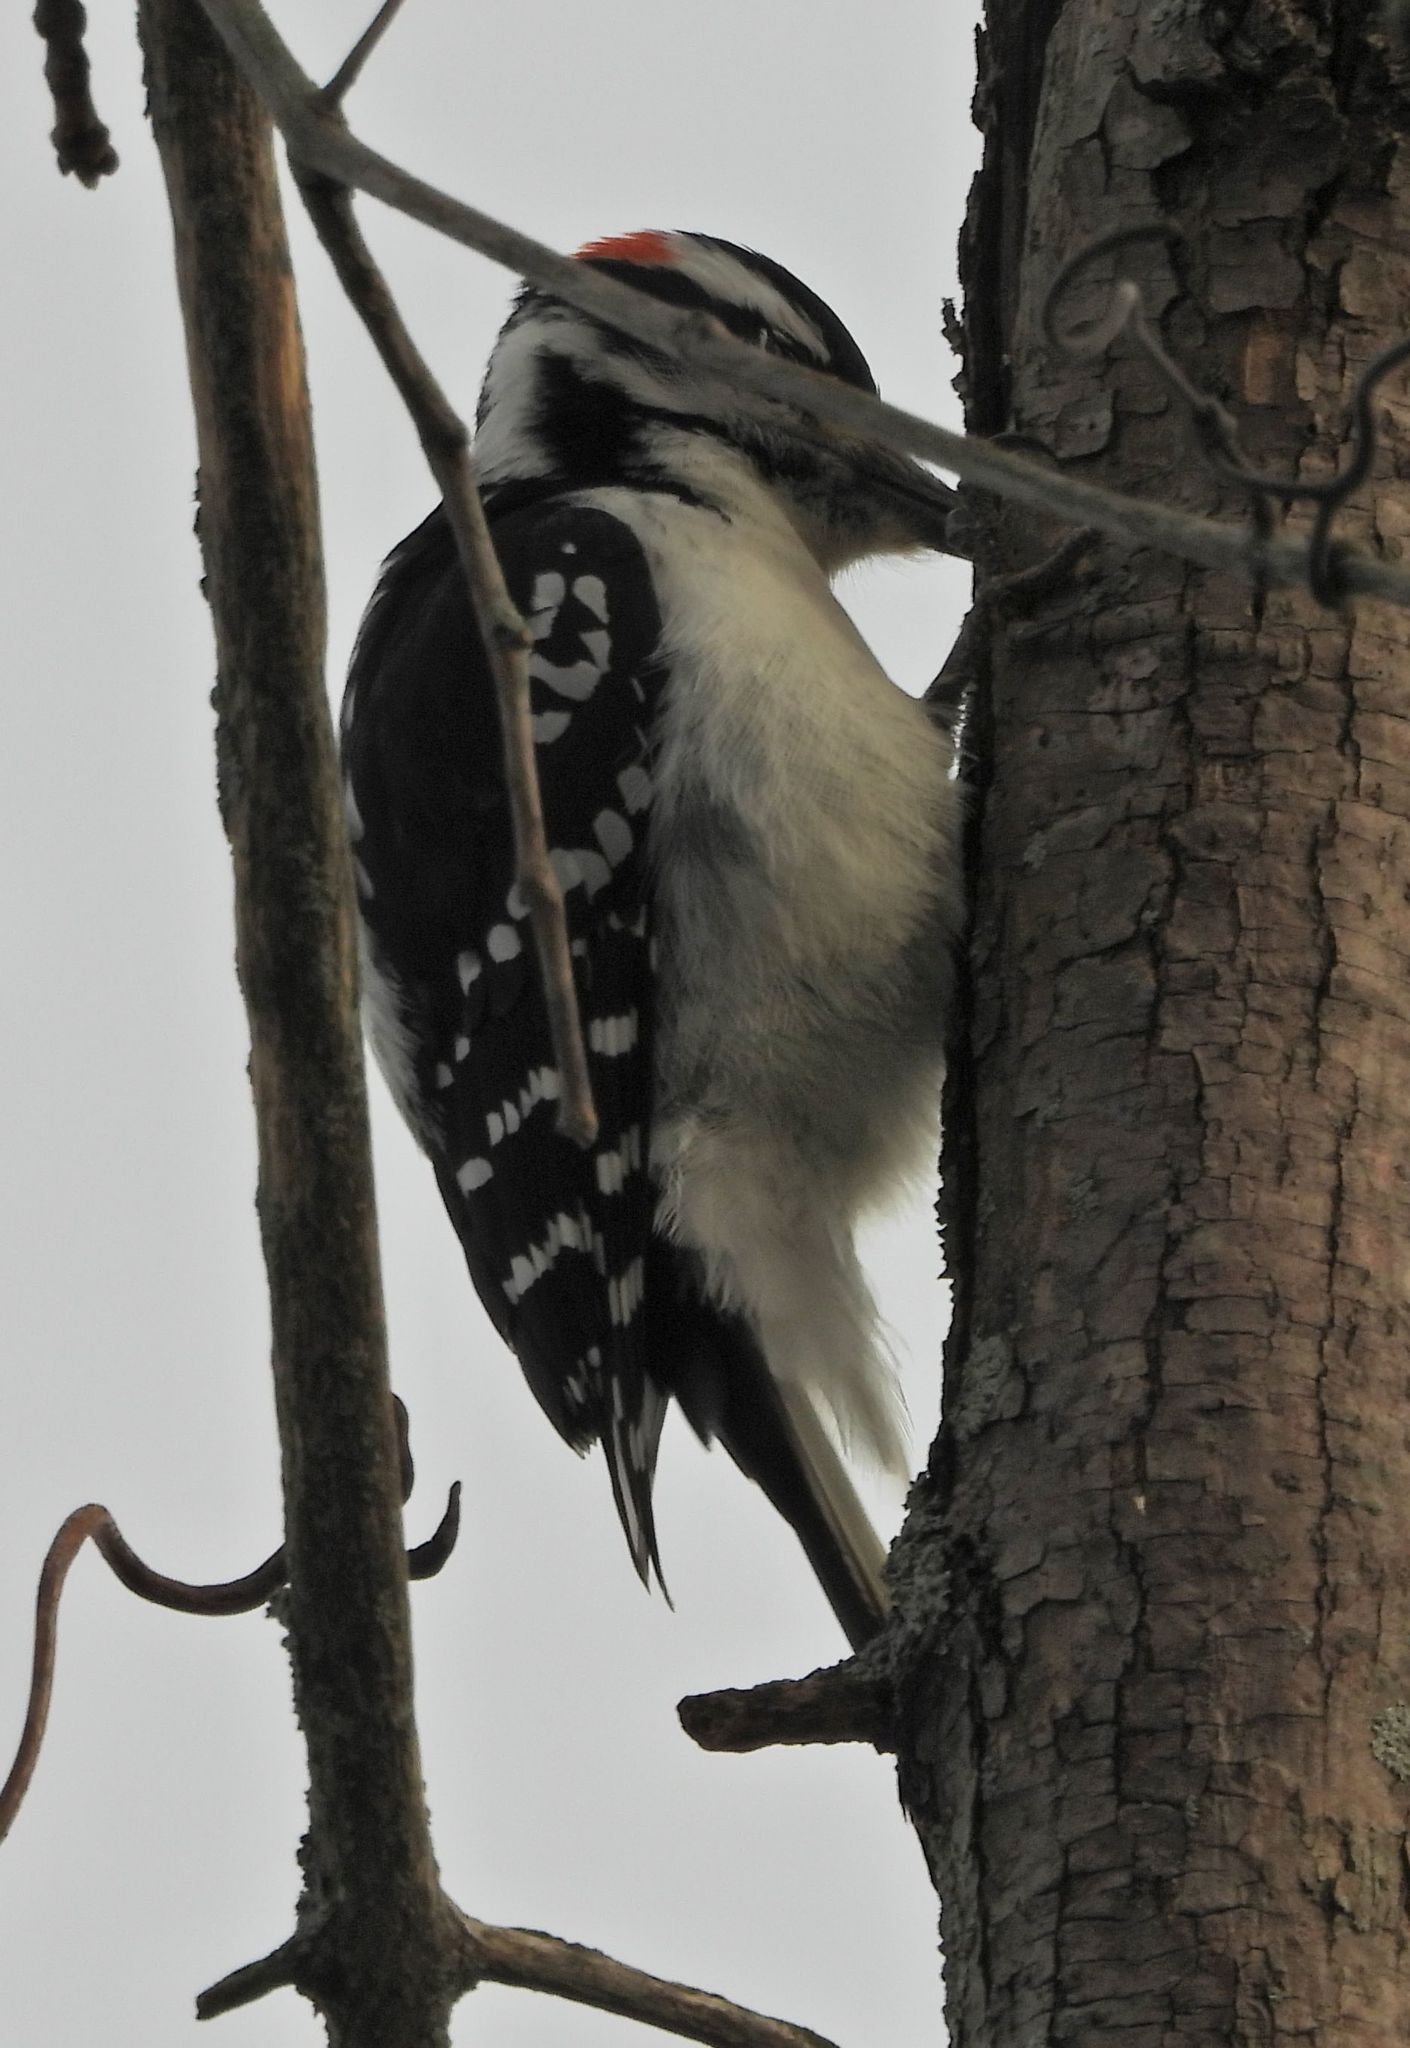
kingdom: Animalia
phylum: Chordata
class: Aves
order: Piciformes
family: Picidae
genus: Leuconotopicus
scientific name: Leuconotopicus villosus
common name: Hairy woodpecker
